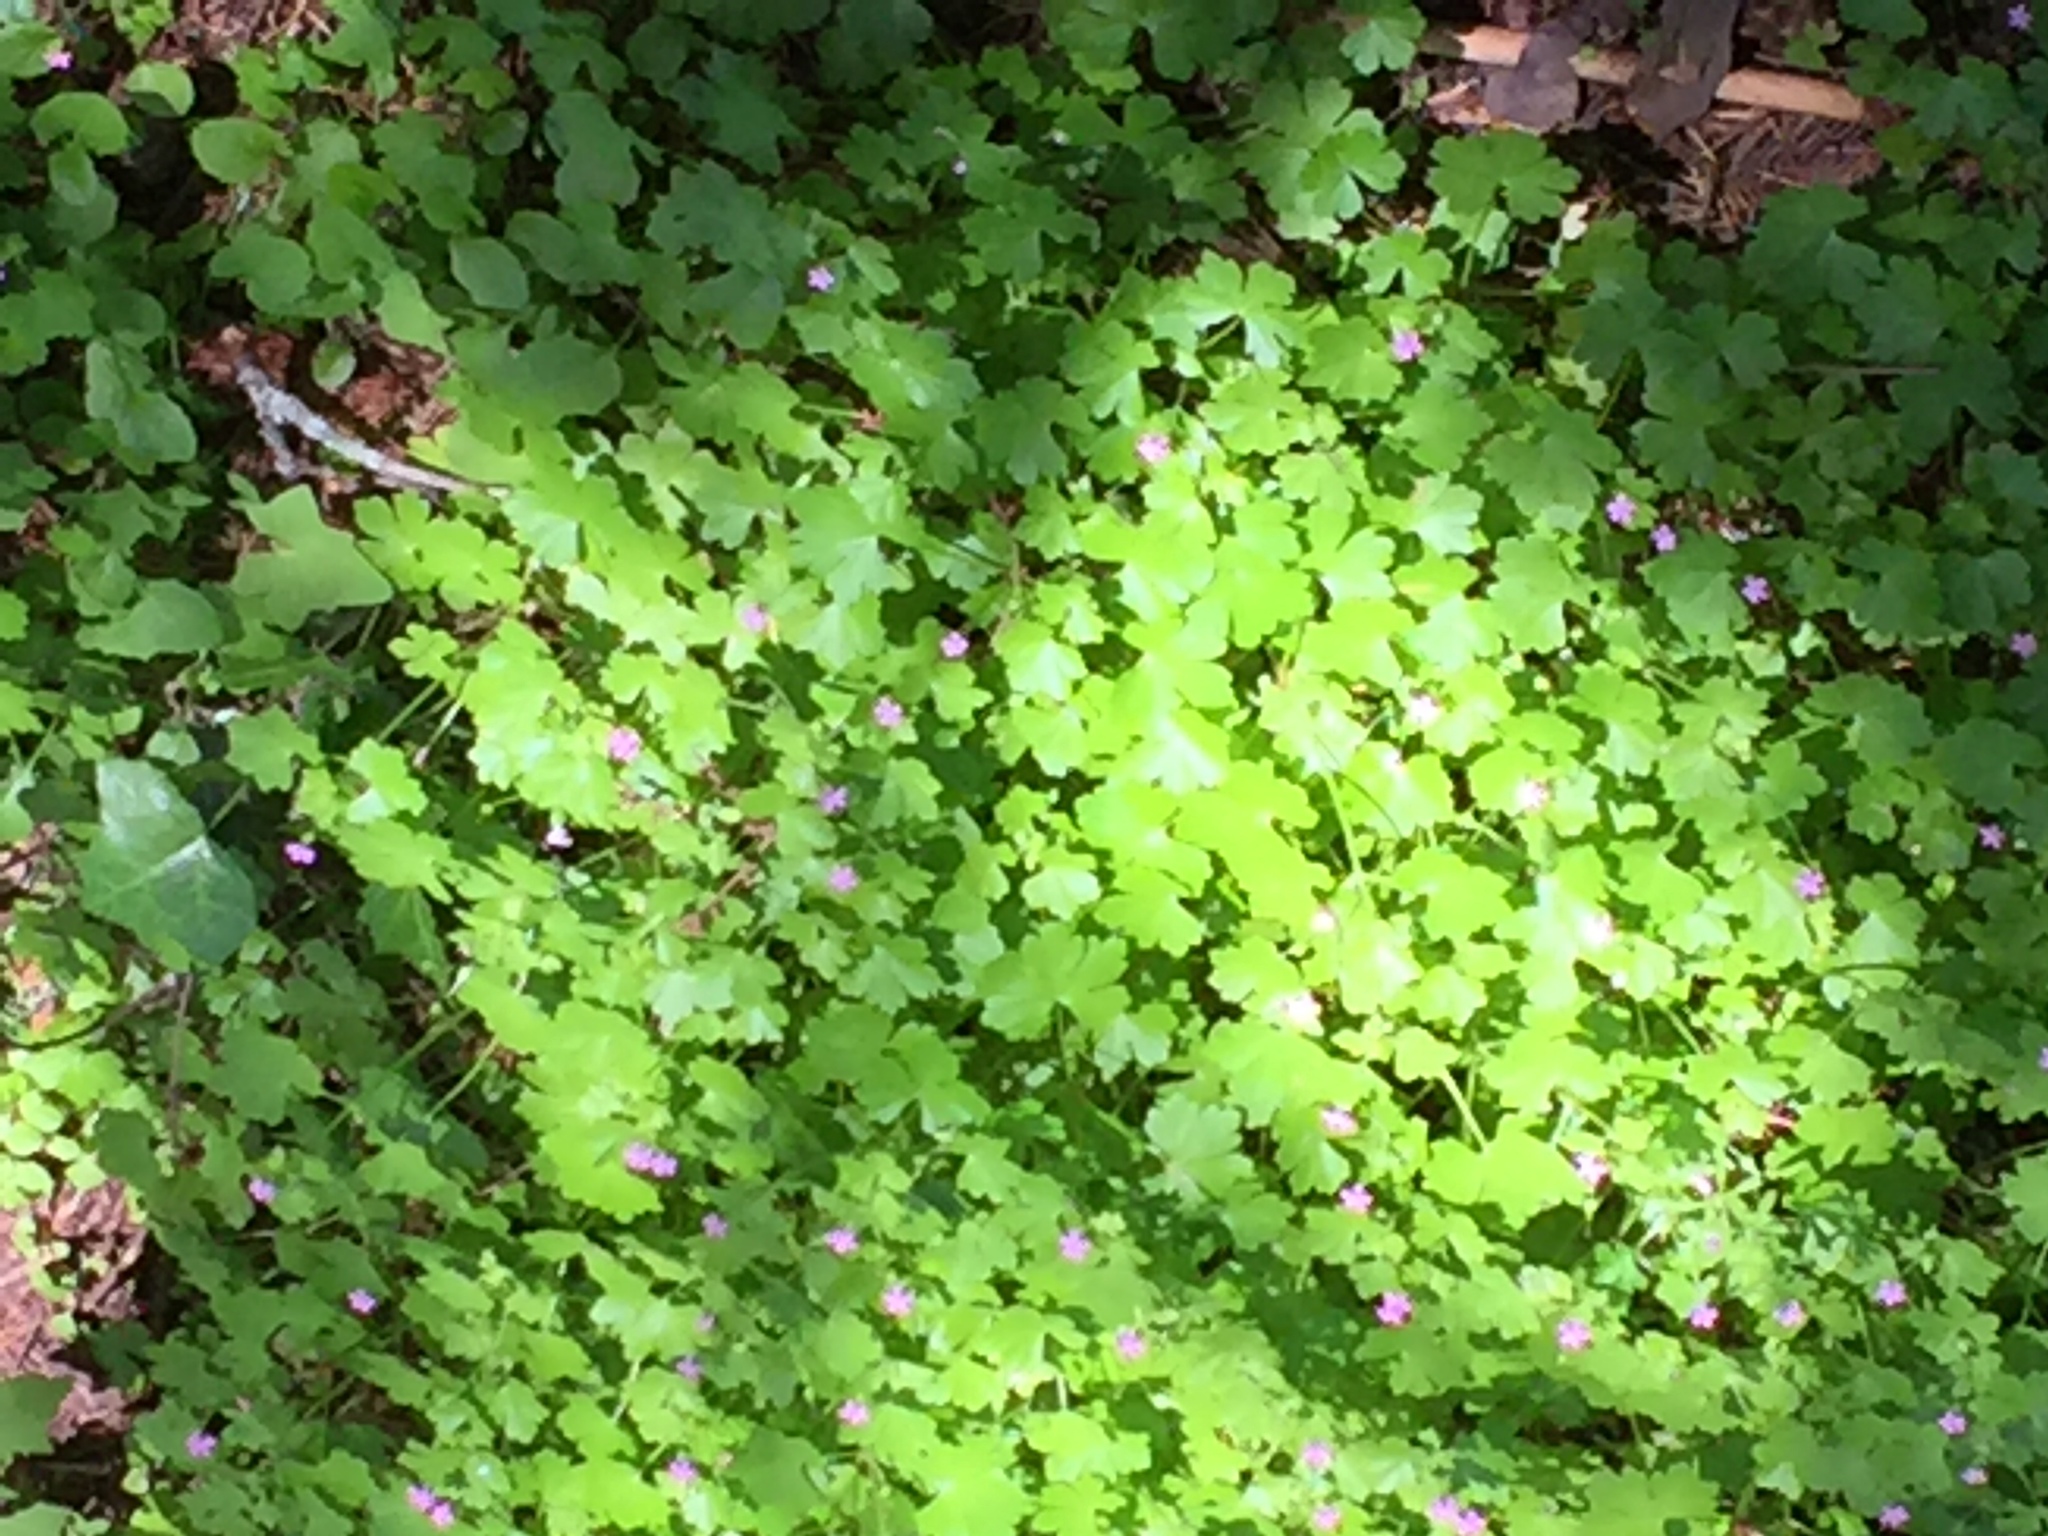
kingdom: Plantae
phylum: Tracheophyta
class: Magnoliopsida
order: Geraniales
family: Geraniaceae
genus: Geranium
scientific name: Geranium lucidum
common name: Shining crane's-bill
